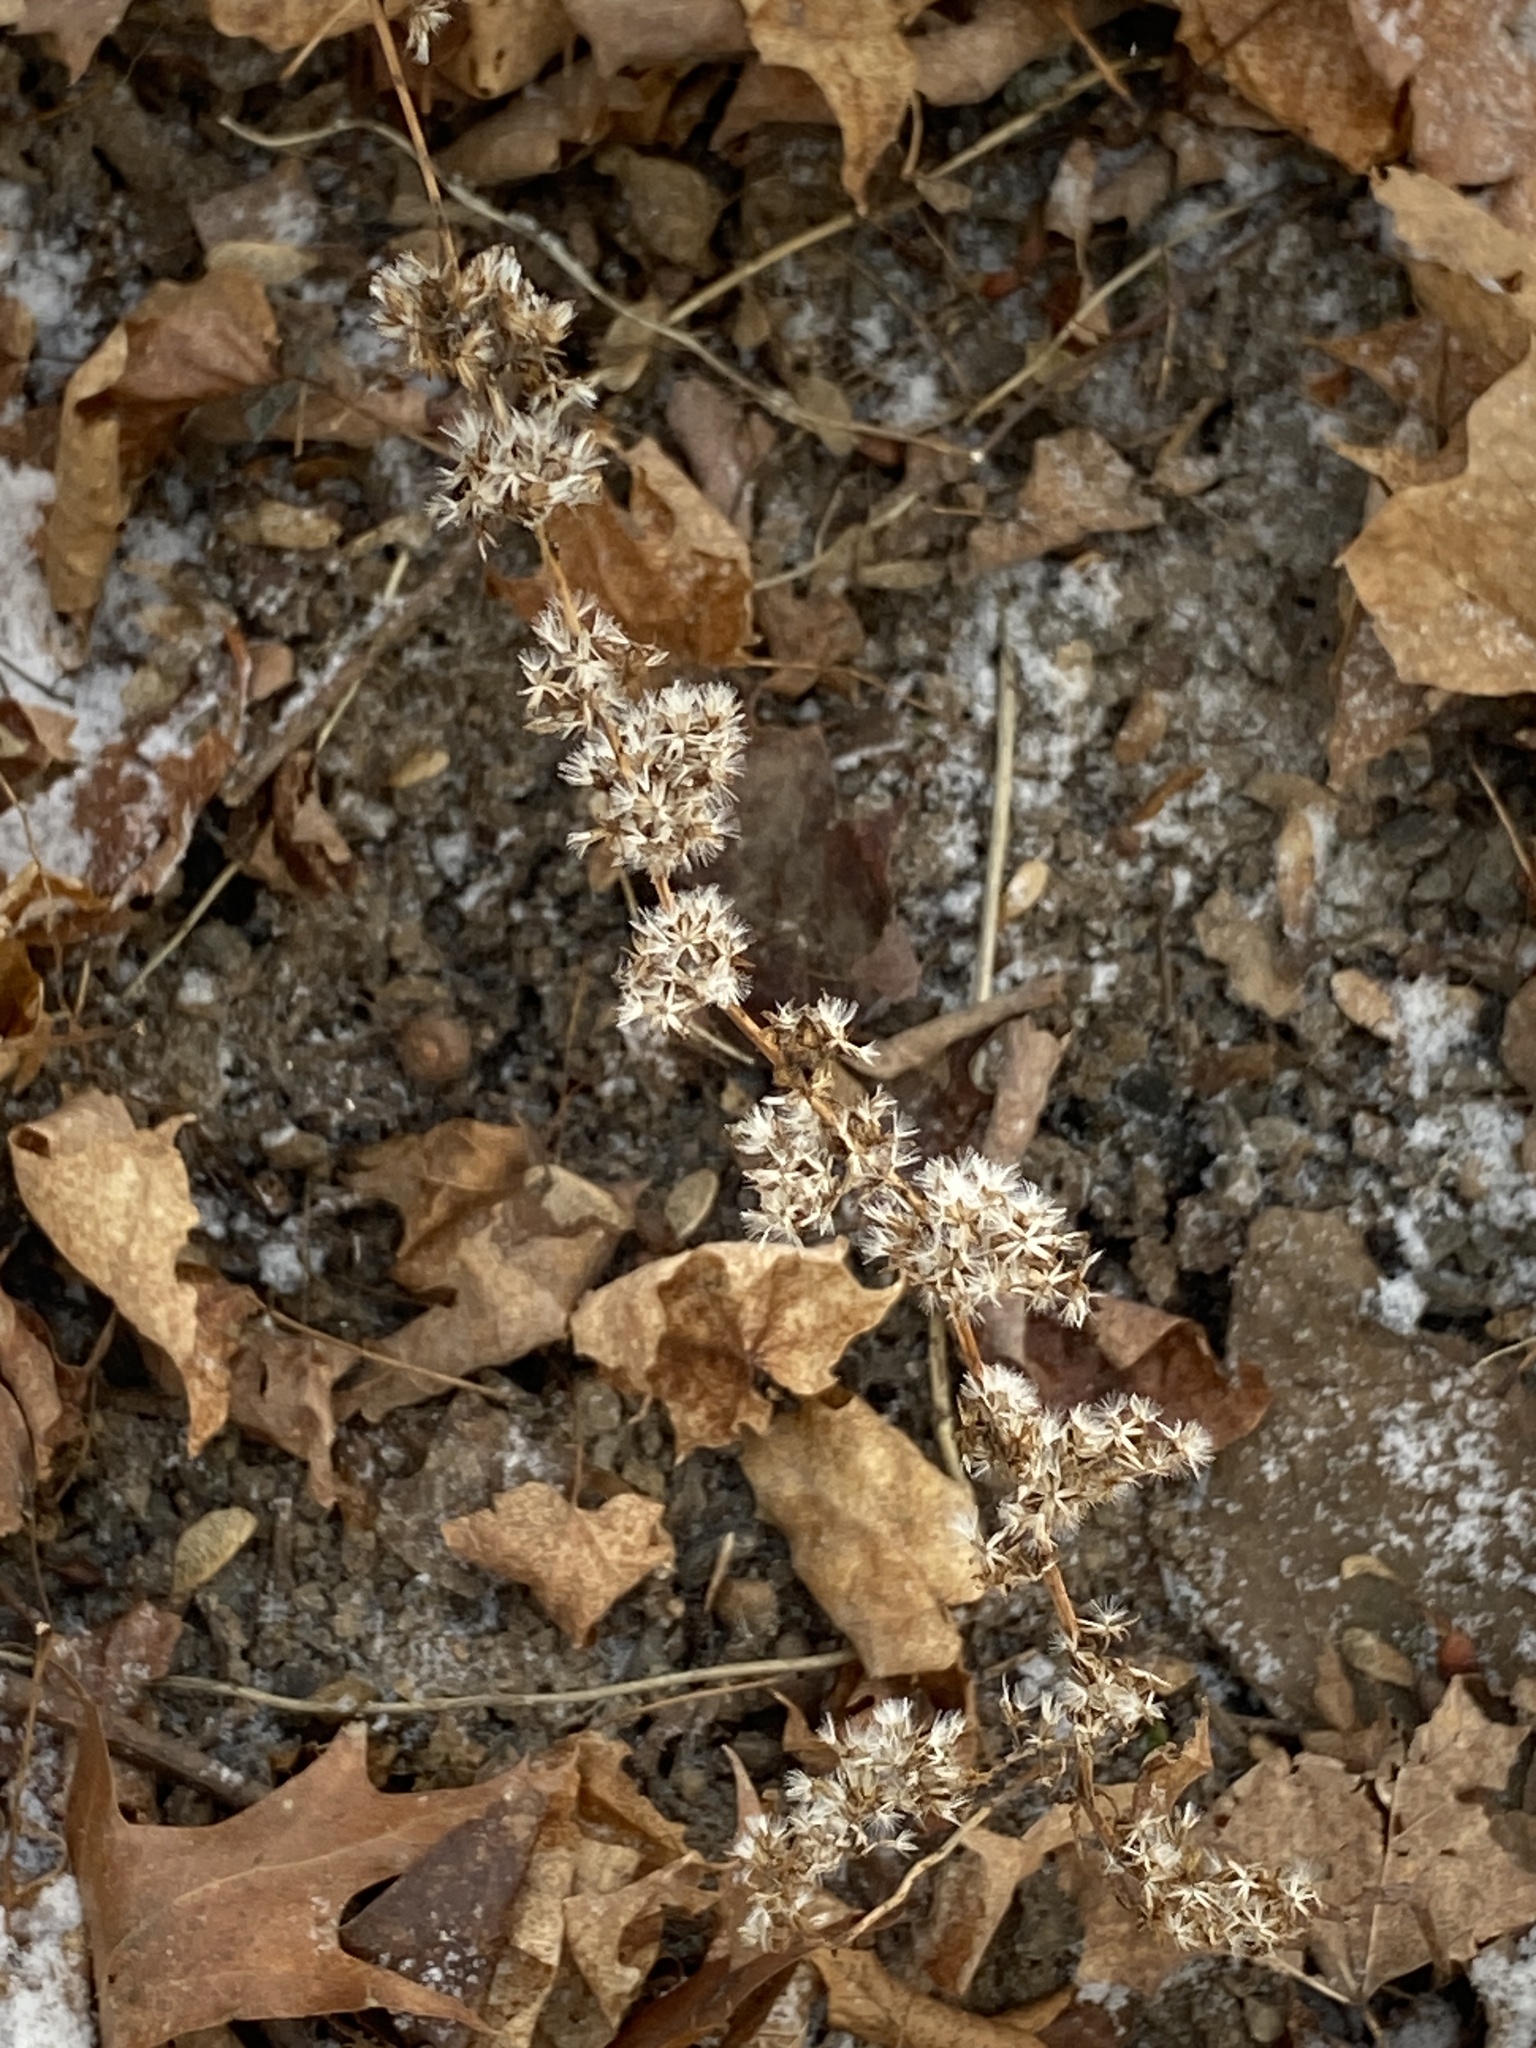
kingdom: Plantae
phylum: Tracheophyta
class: Magnoliopsida
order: Asterales
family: Asteraceae
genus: Solidago
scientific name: Solidago caesia
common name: Woodland goldenrod
